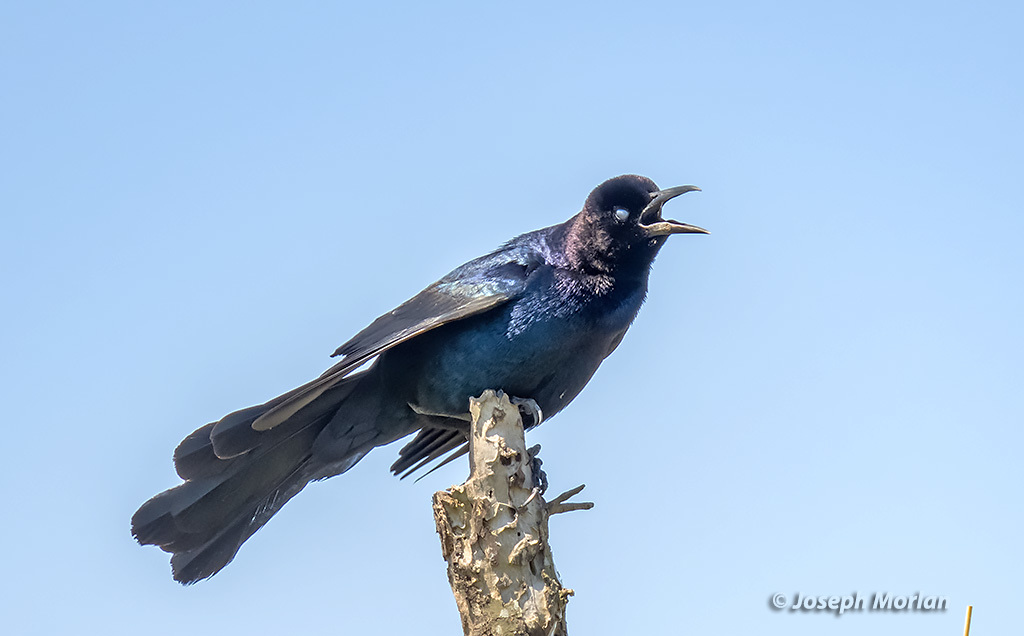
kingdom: Animalia
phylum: Chordata
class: Aves
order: Passeriformes
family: Icteridae
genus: Quiscalus
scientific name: Quiscalus major
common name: Boat-tailed grackle
